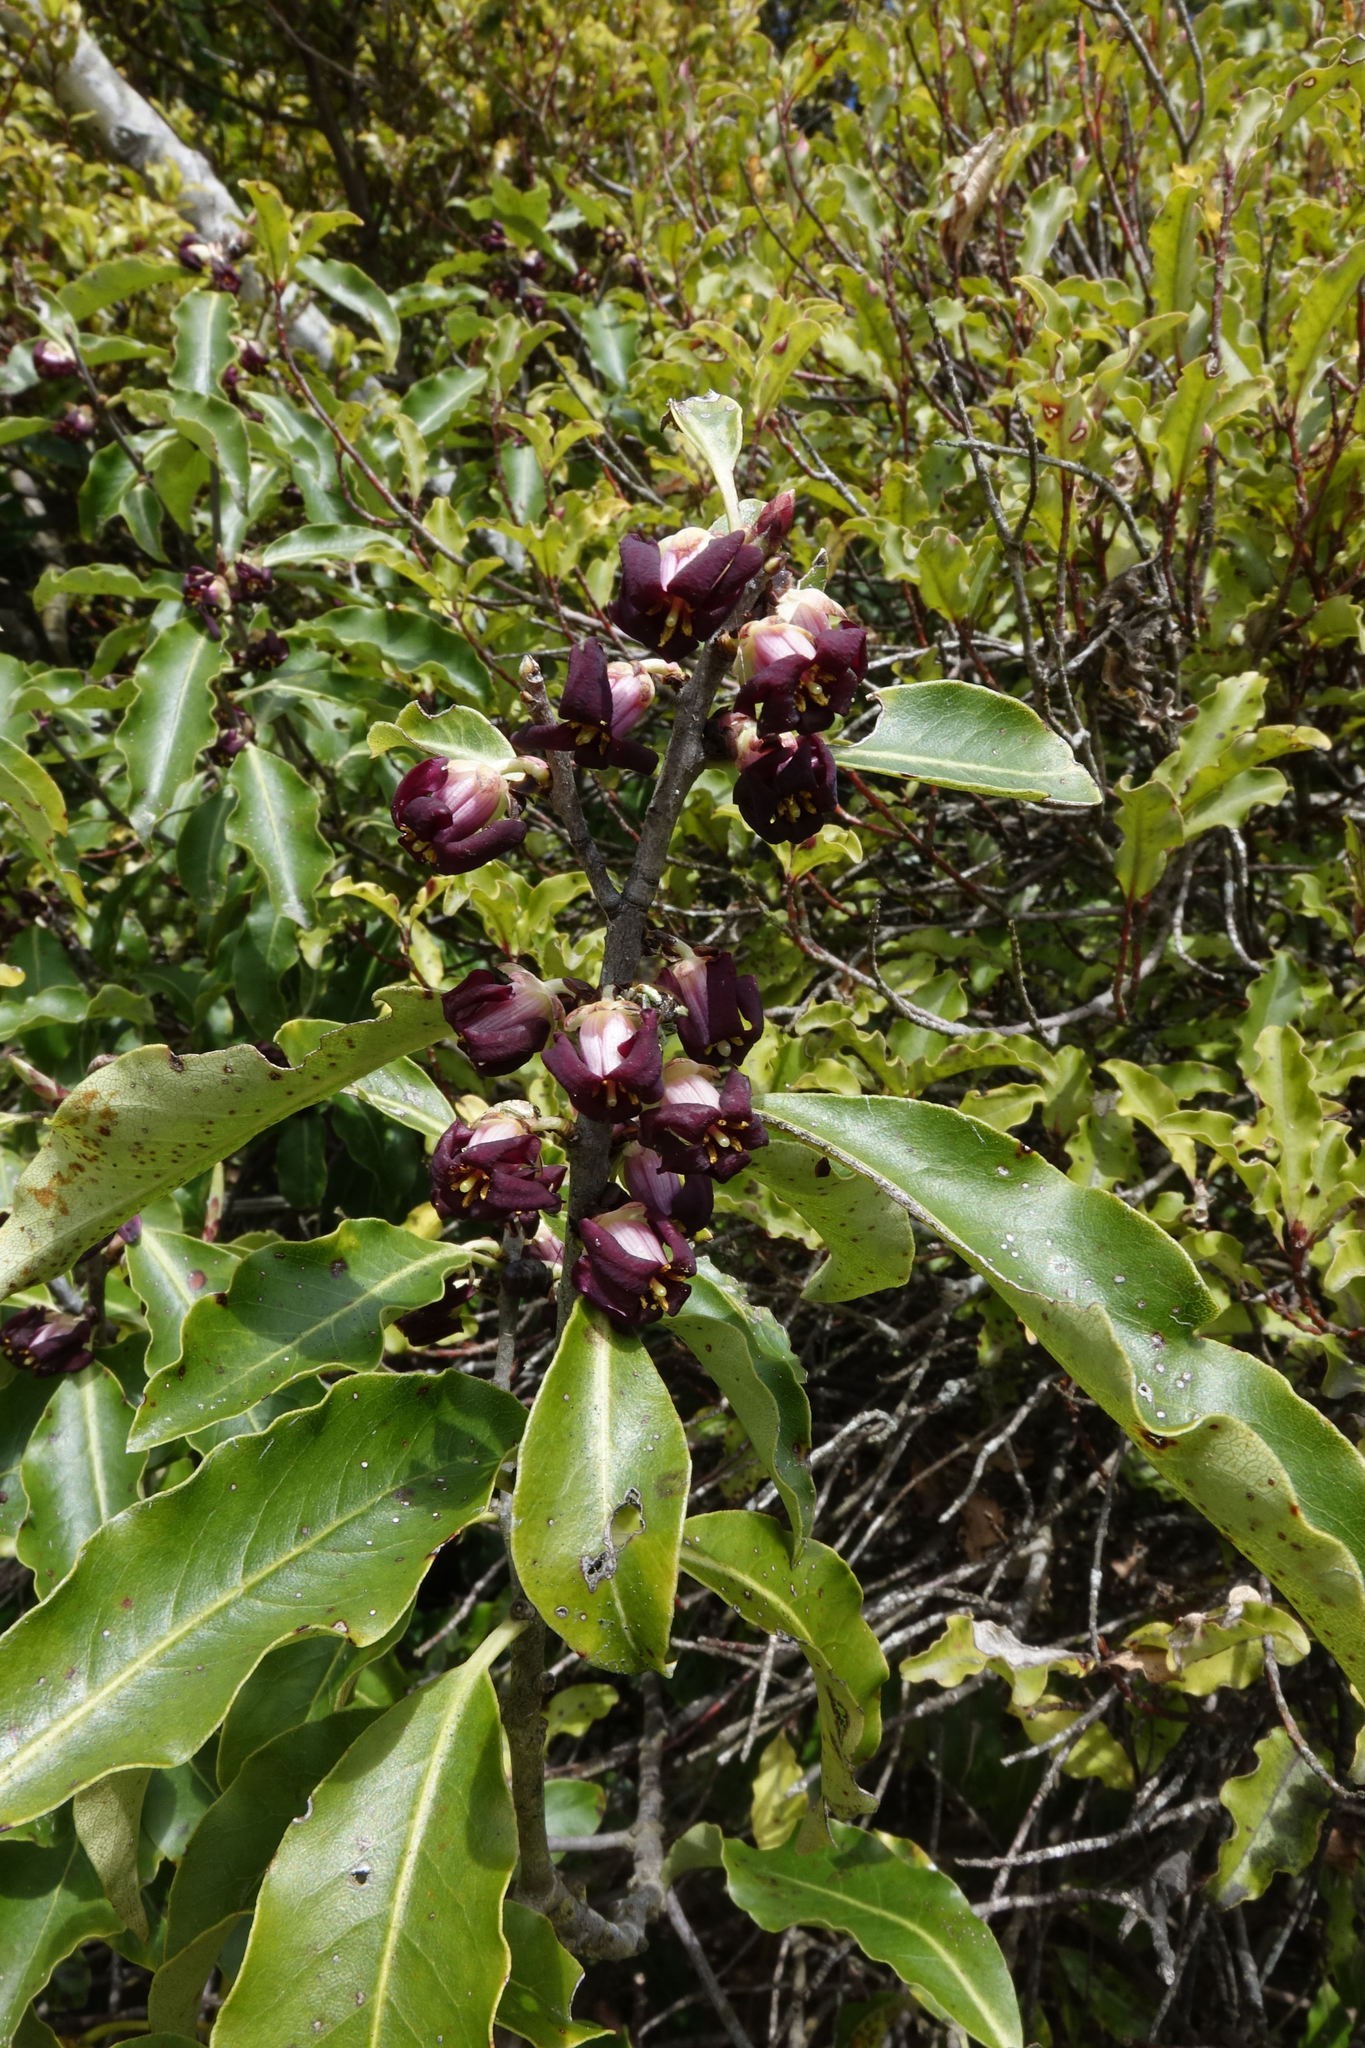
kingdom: Plantae
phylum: Tracheophyta
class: Magnoliopsida
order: Apiales
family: Pittosporaceae
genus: Pittosporum
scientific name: Pittosporum tenuifolium
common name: Kohuhu
